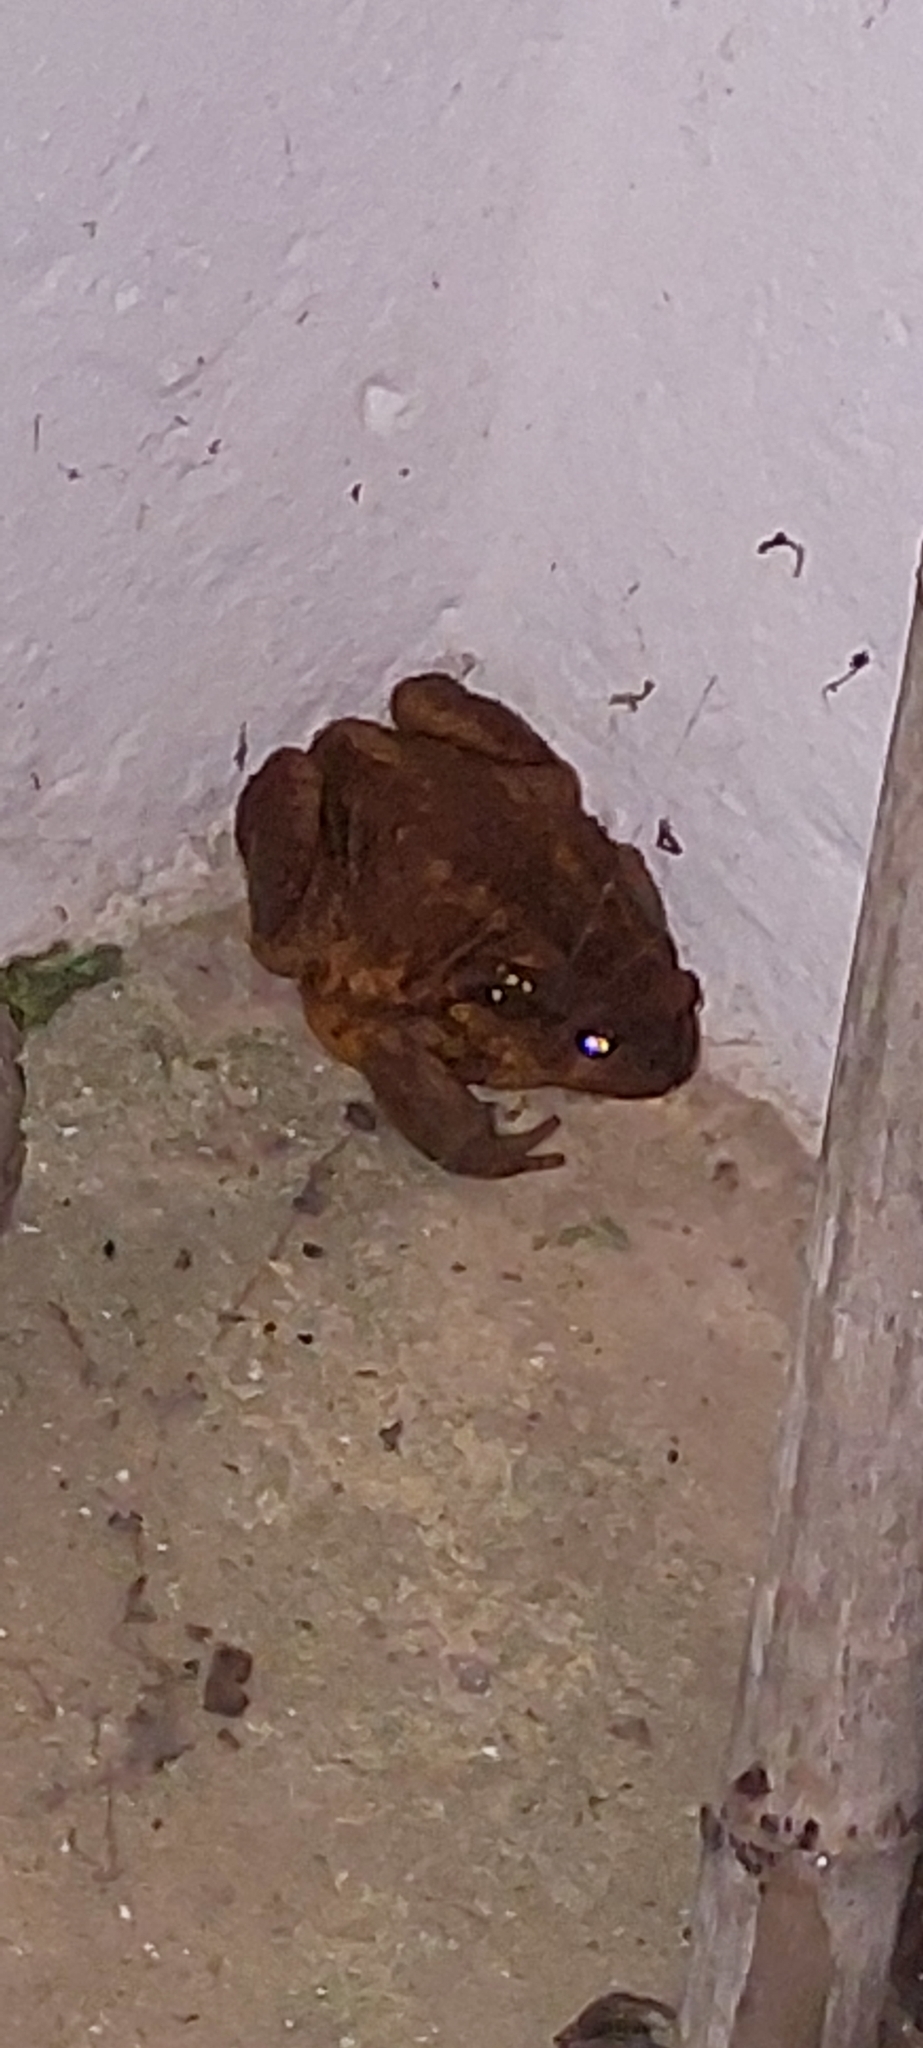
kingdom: Animalia
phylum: Chordata
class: Amphibia
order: Anura
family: Bufonidae
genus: Bufo
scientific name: Bufo spinosus
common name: Western common toad
